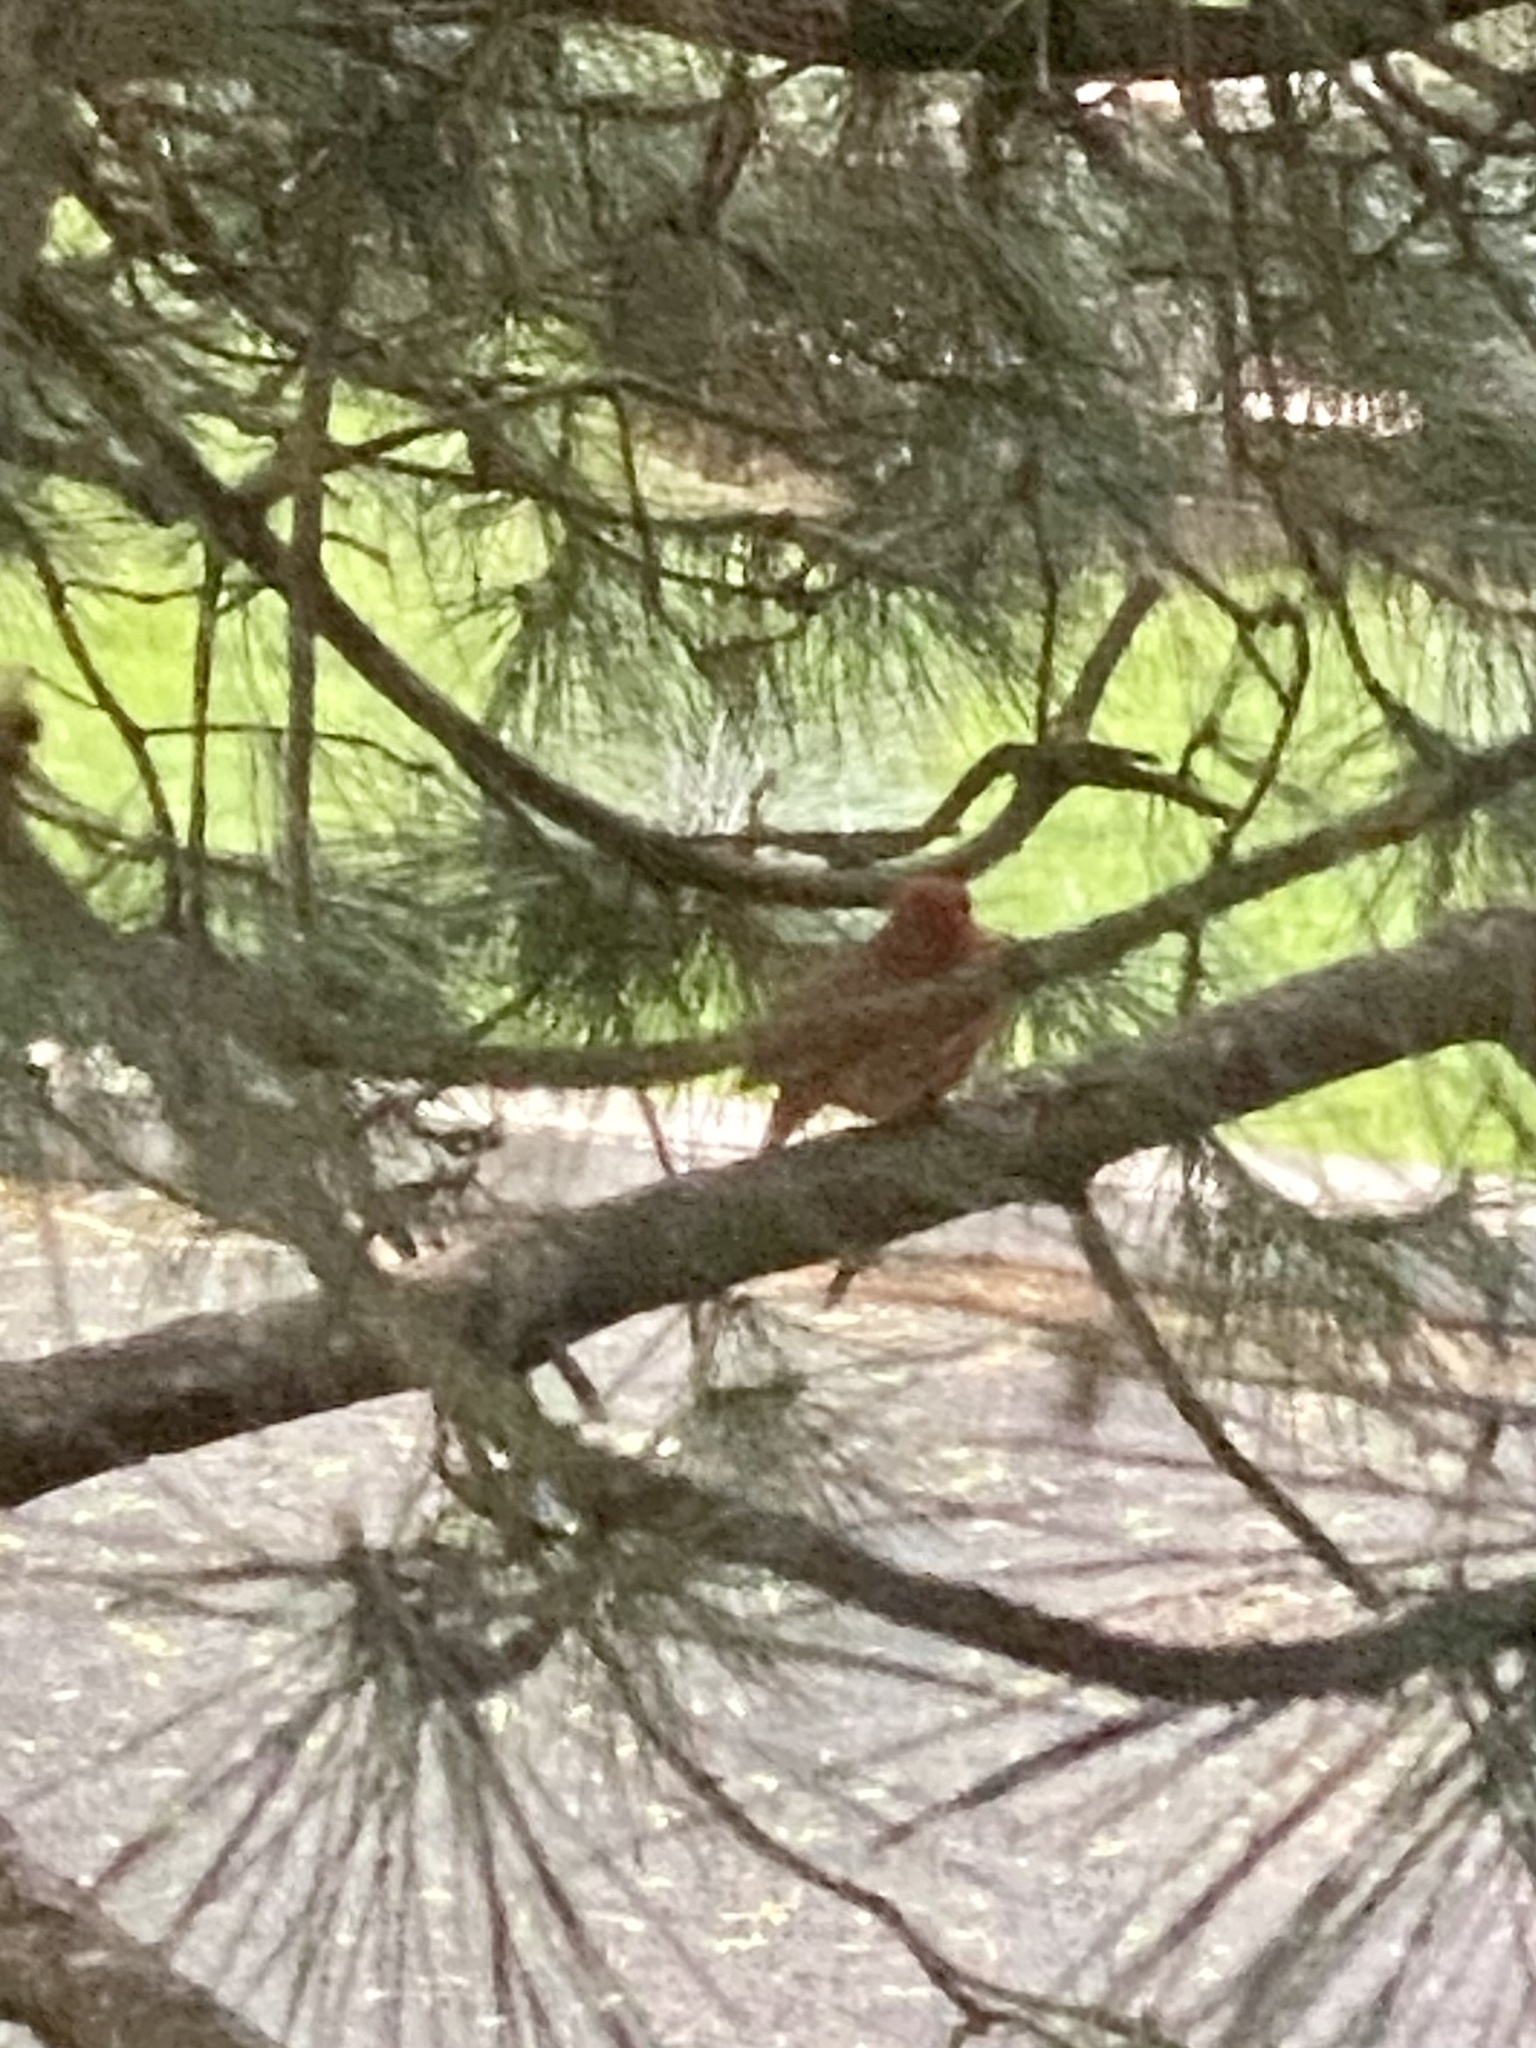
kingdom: Animalia
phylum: Chordata
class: Aves
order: Passeriformes
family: Cardinalidae
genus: Cardinalis
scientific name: Cardinalis cardinalis
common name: Northern cardinal
